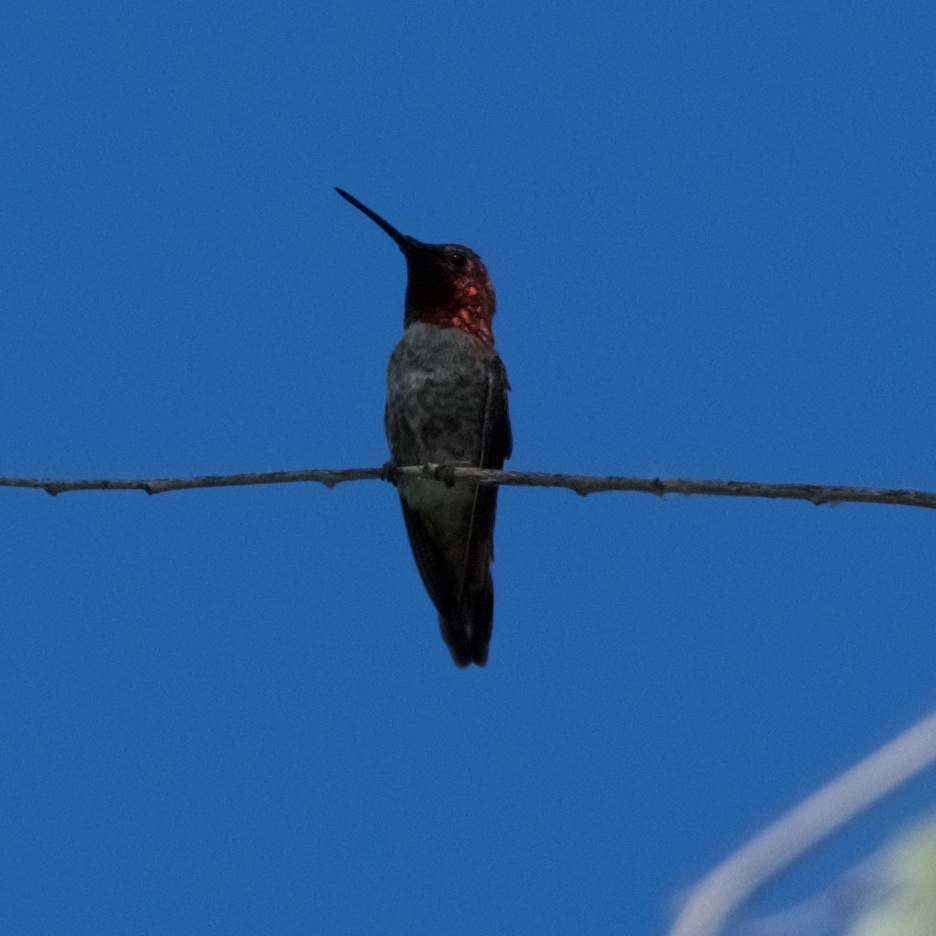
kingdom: Animalia
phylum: Chordata
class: Aves
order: Apodiformes
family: Trochilidae
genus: Calypte
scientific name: Calypte anna
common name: Anna's hummingbird
